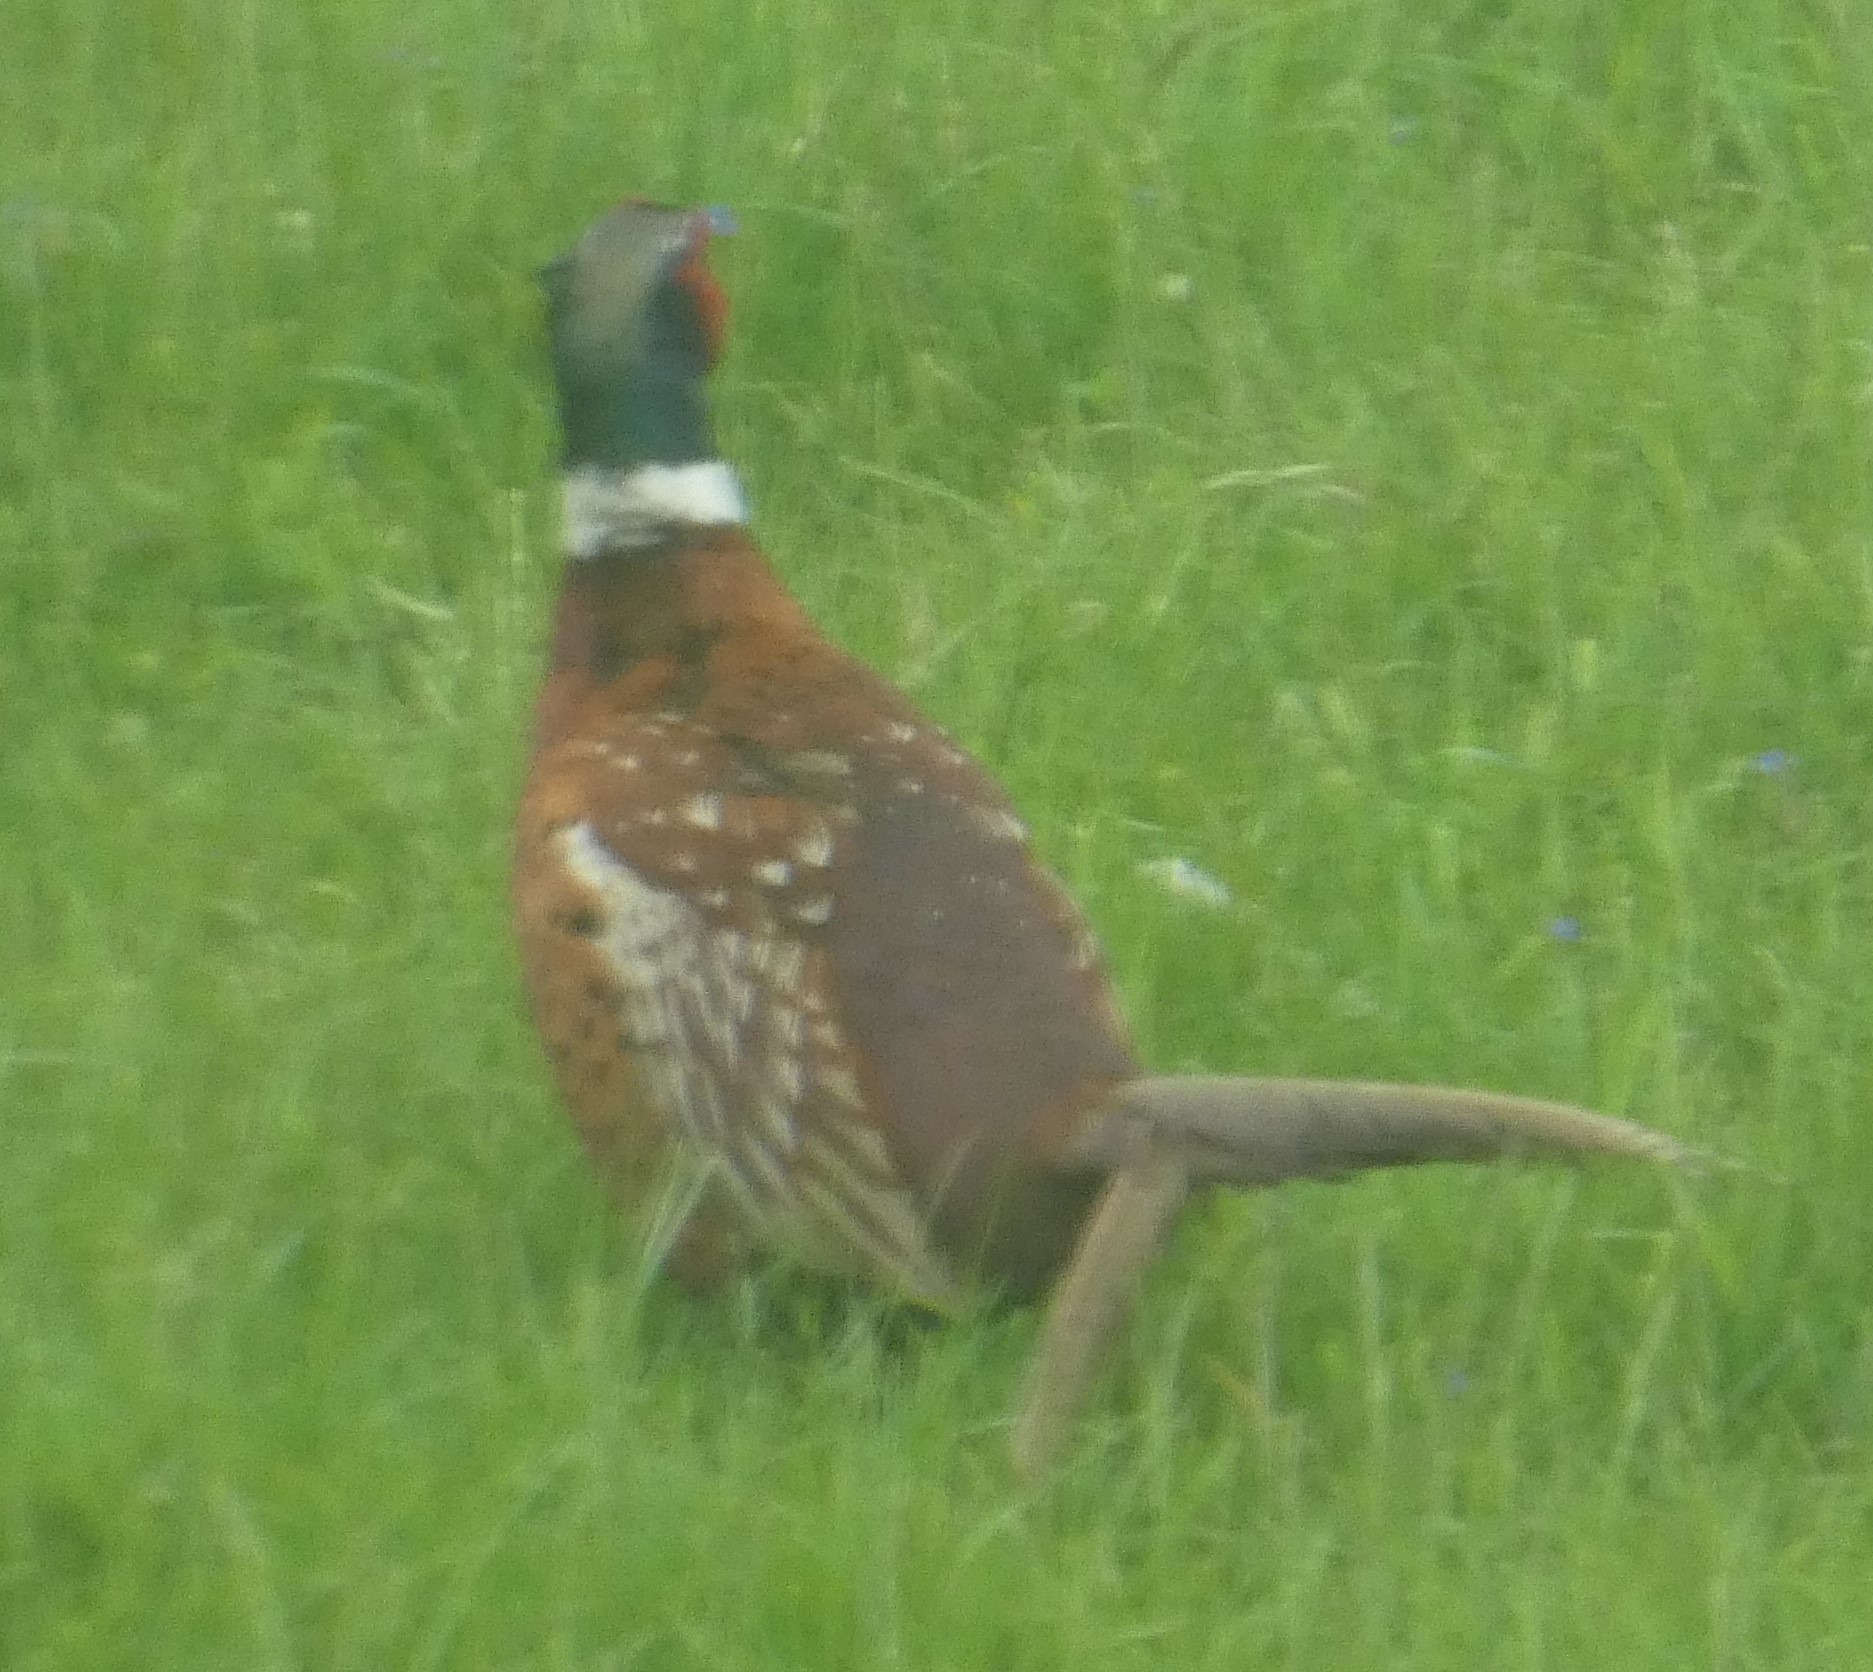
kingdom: Animalia
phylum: Chordata
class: Aves
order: Galliformes
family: Phasianidae
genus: Phasianus
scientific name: Phasianus colchicus
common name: Common pheasant
